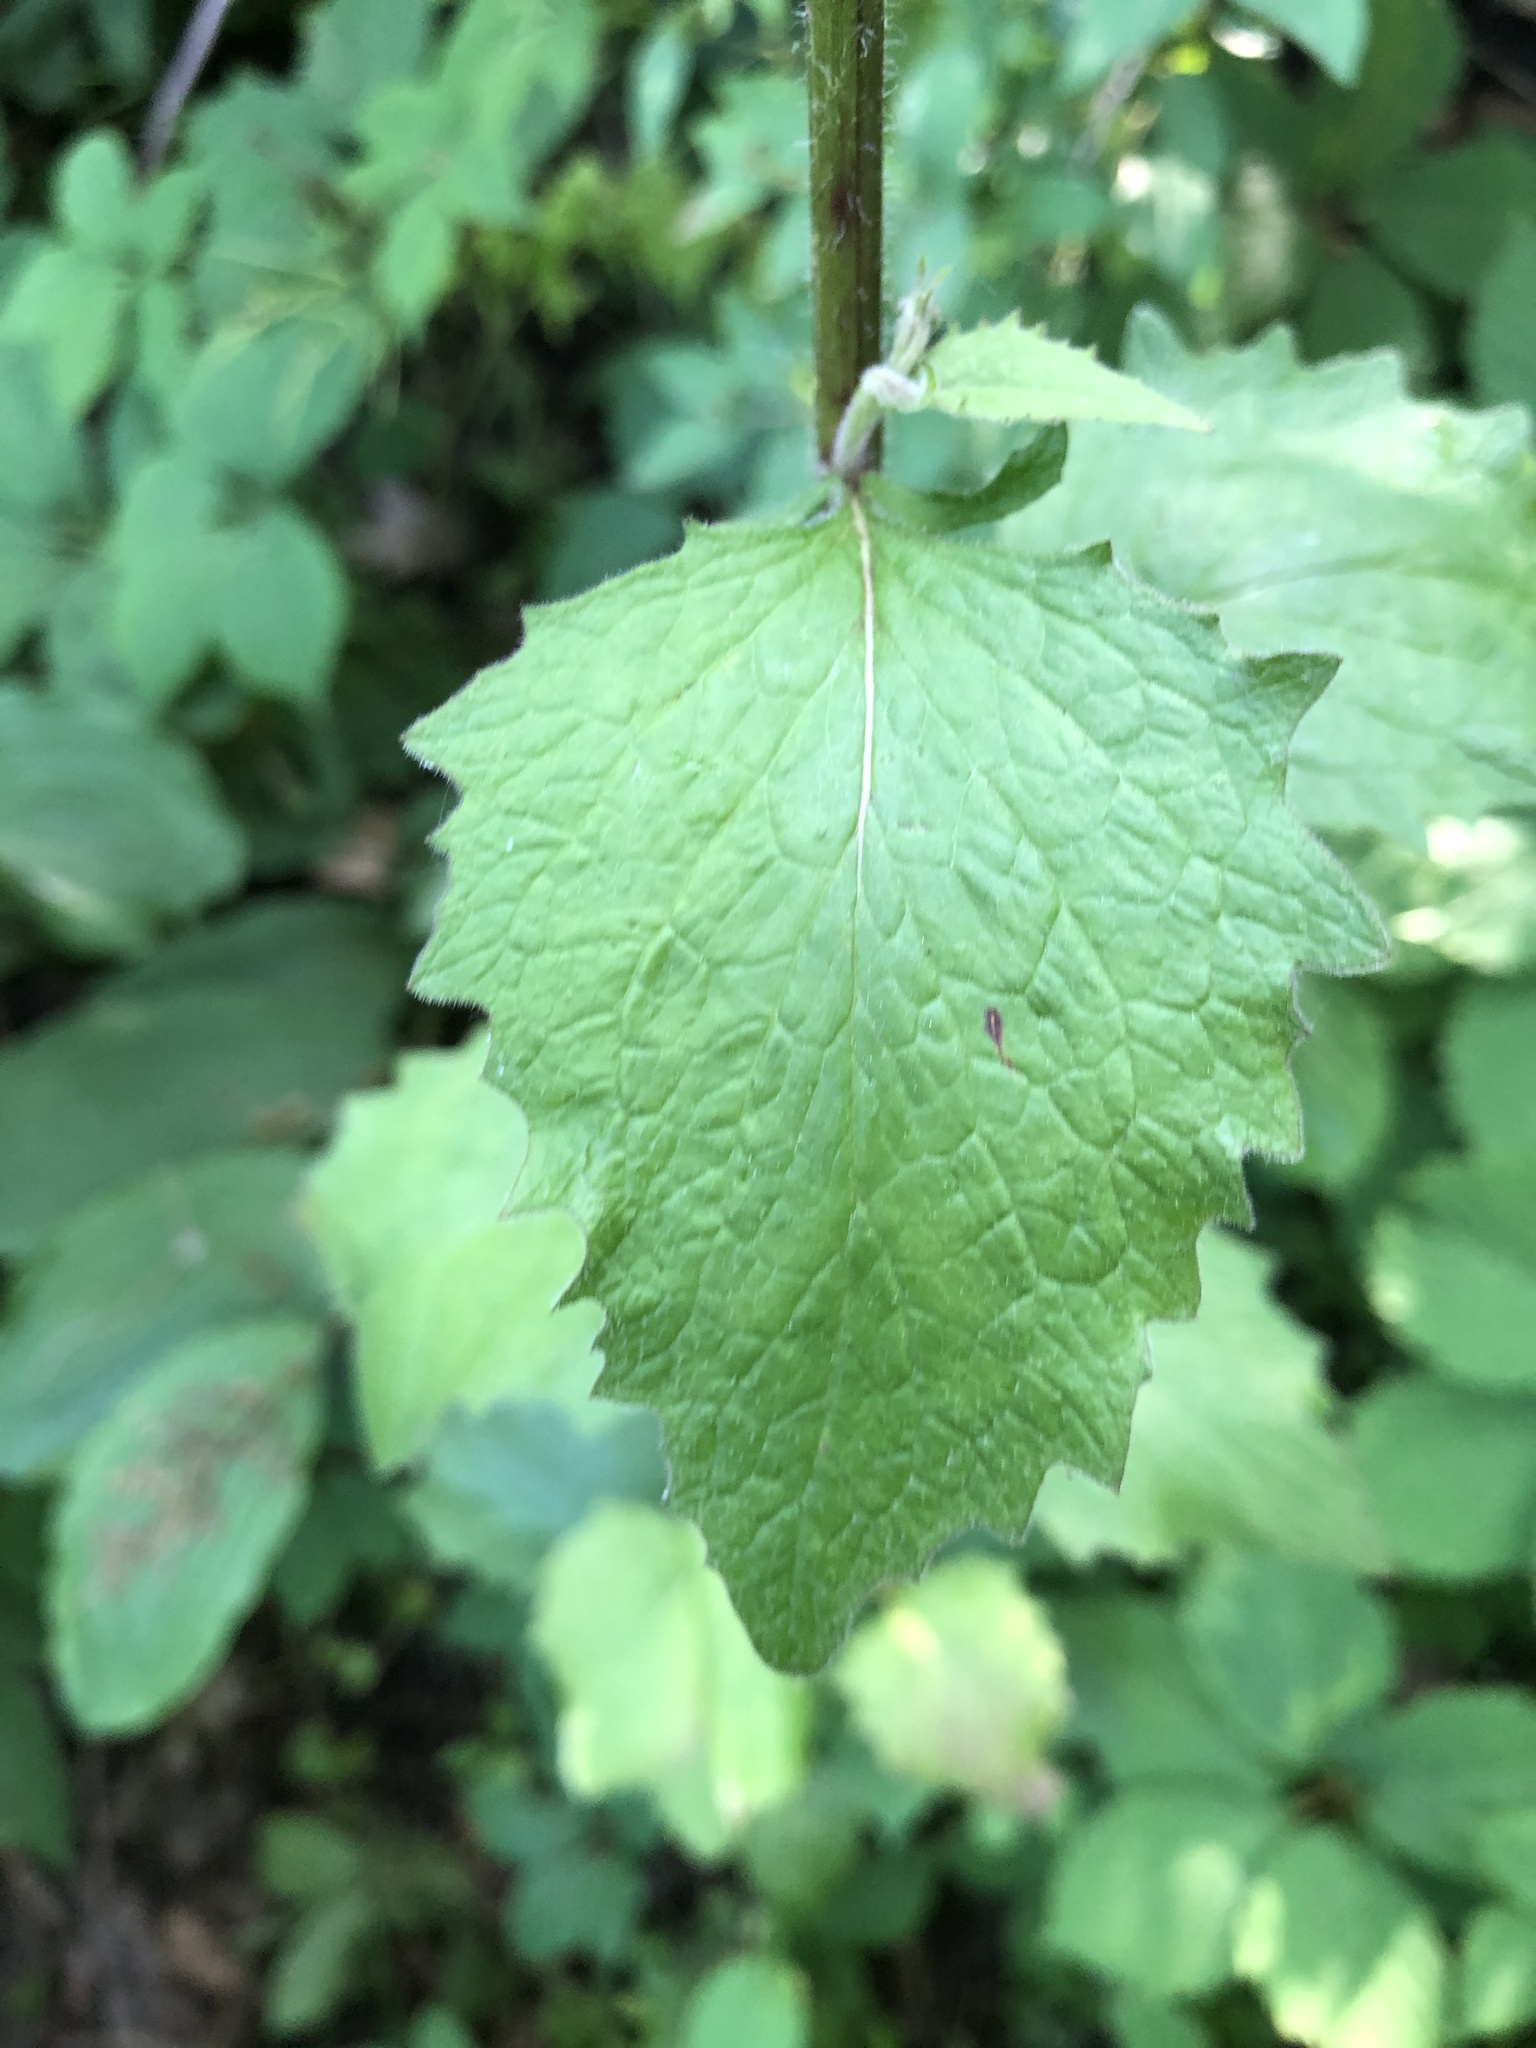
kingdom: Plantae
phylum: Tracheophyta
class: Magnoliopsida
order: Asterales
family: Asteraceae
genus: Lapsana
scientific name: Lapsana communis
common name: Nipplewort
